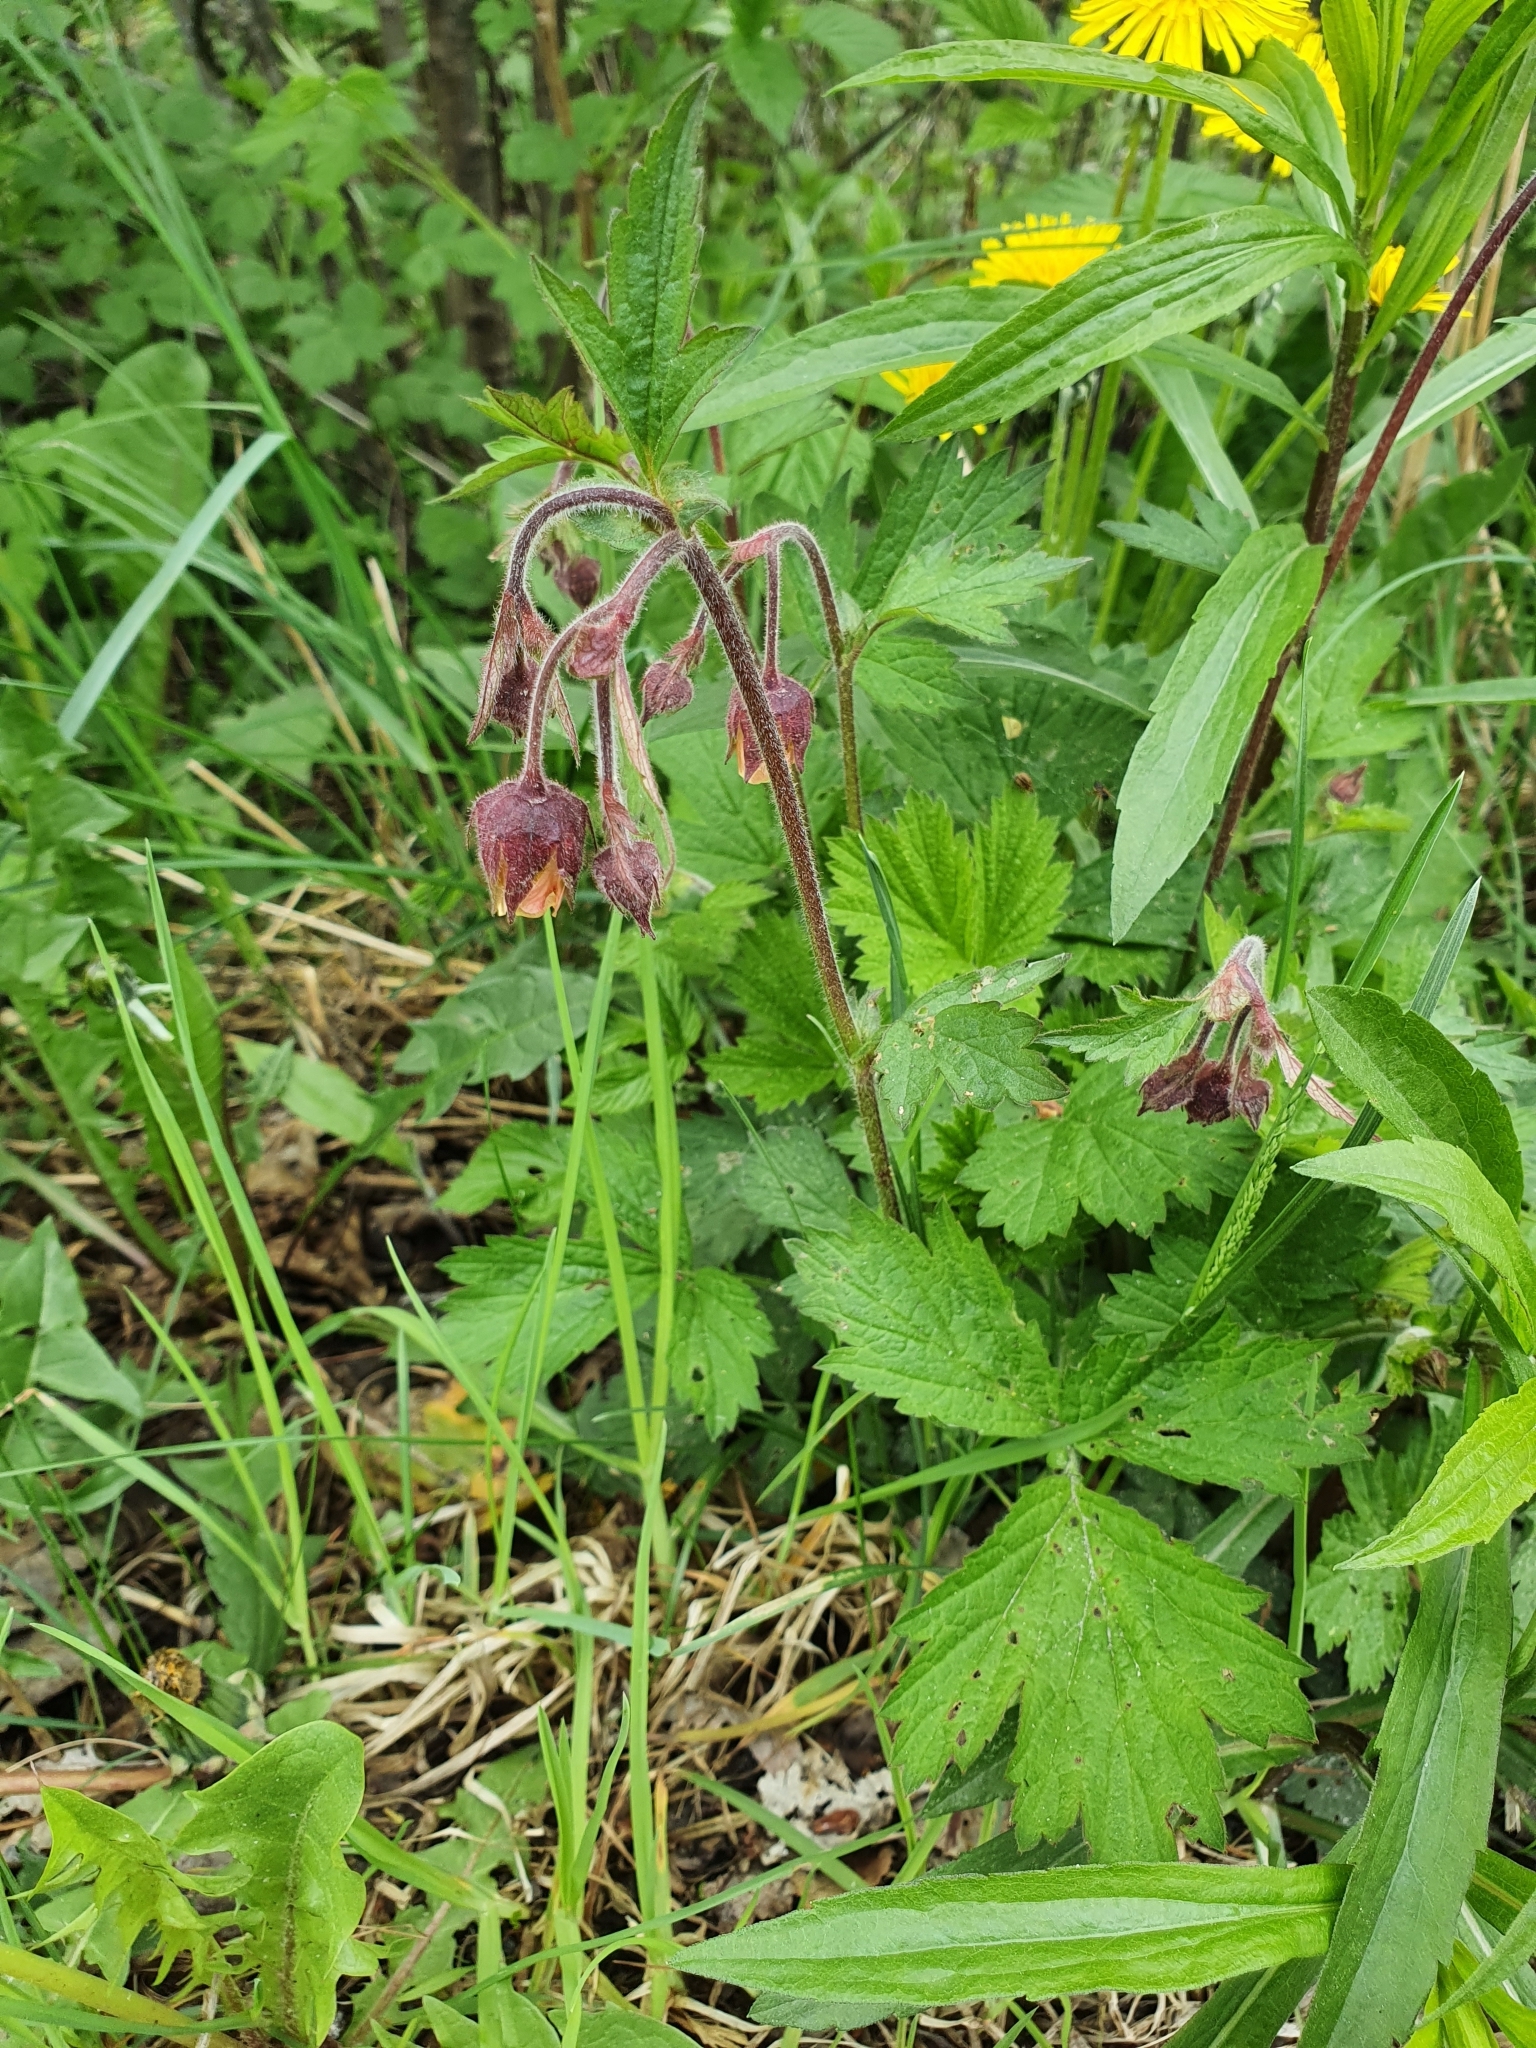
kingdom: Plantae
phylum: Tracheophyta
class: Magnoliopsida
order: Rosales
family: Rosaceae
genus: Geum
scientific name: Geum rivale
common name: Water avens
